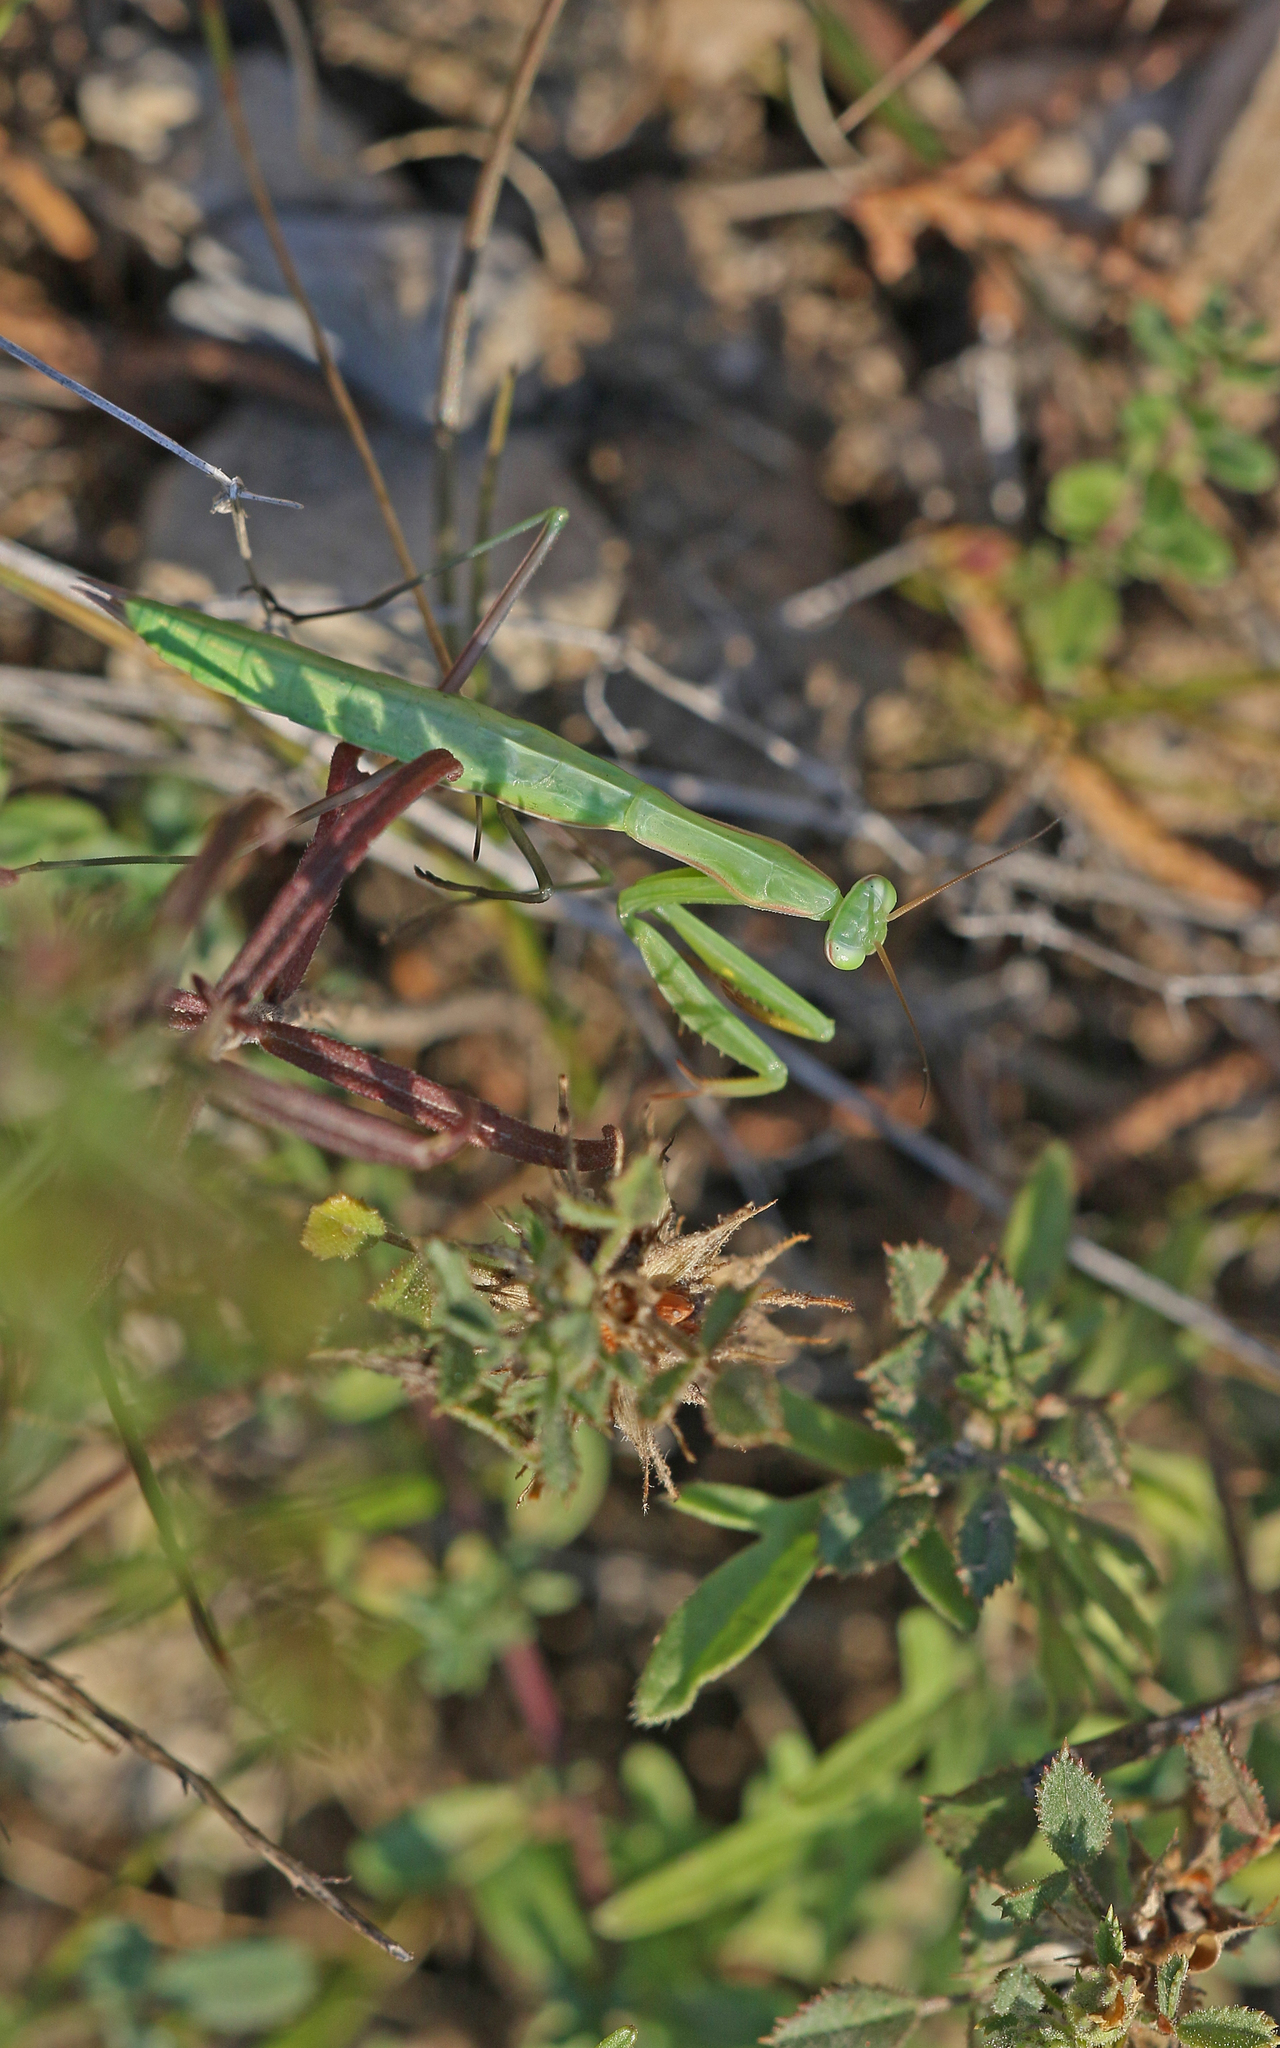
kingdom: Animalia
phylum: Arthropoda
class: Insecta
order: Mantodea
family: Mantidae
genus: Mantis
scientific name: Mantis religiosa
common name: Praying mantis
